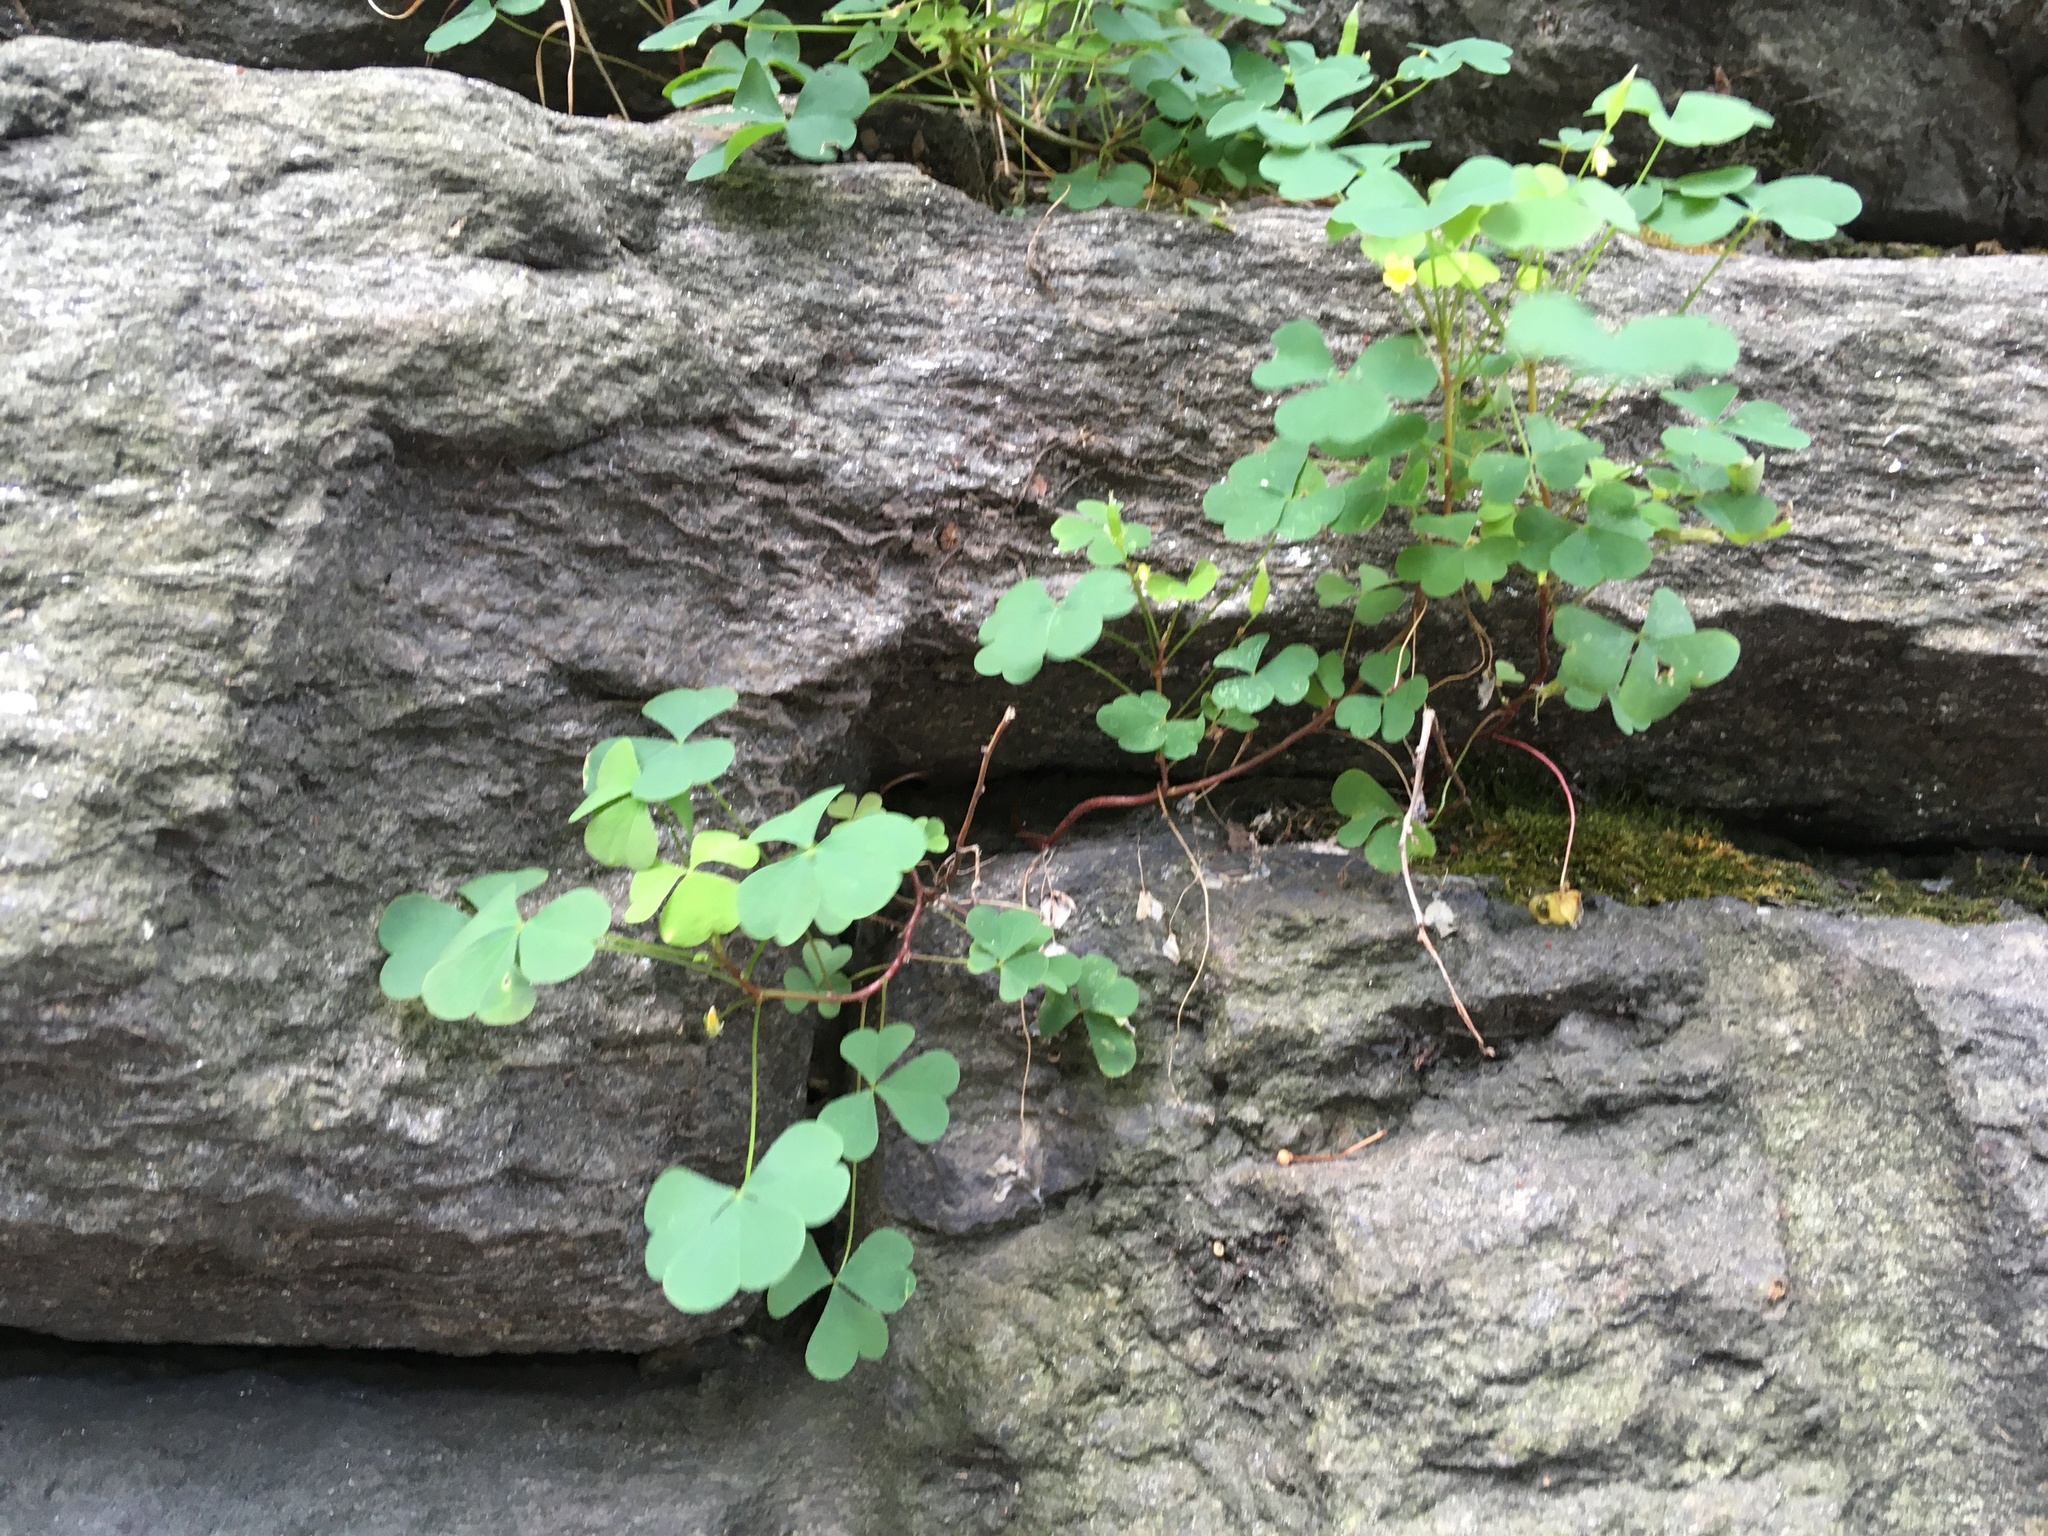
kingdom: Plantae
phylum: Tracheophyta
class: Magnoliopsida
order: Oxalidales
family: Oxalidaceae
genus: Oxalis
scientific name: Oxalis corniculata
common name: Procumbent yellow-sorrel
